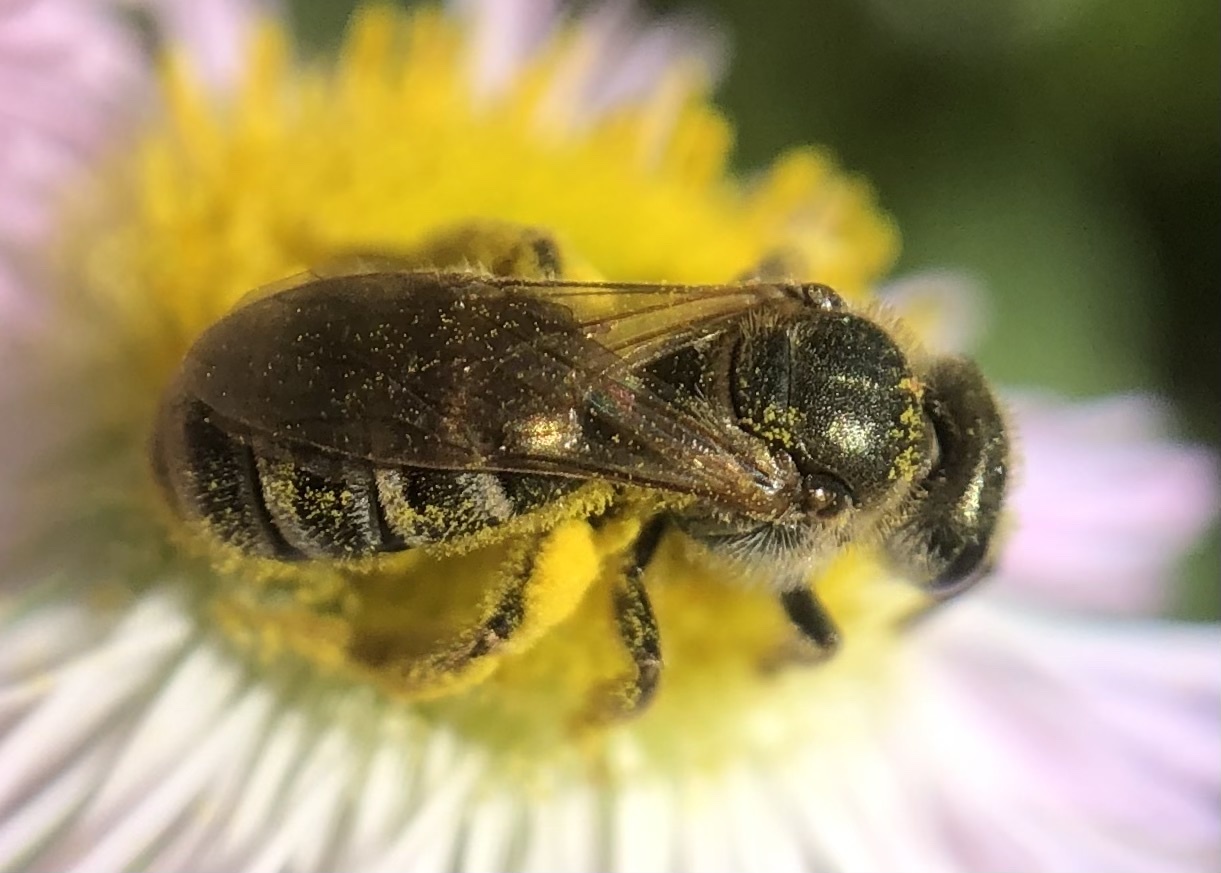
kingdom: Animalia
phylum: Arthropoda
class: Insecta
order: Hymenoptera
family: Halictidae
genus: Halictus
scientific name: Halictus confusus
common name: Southern bronze furrow bee
